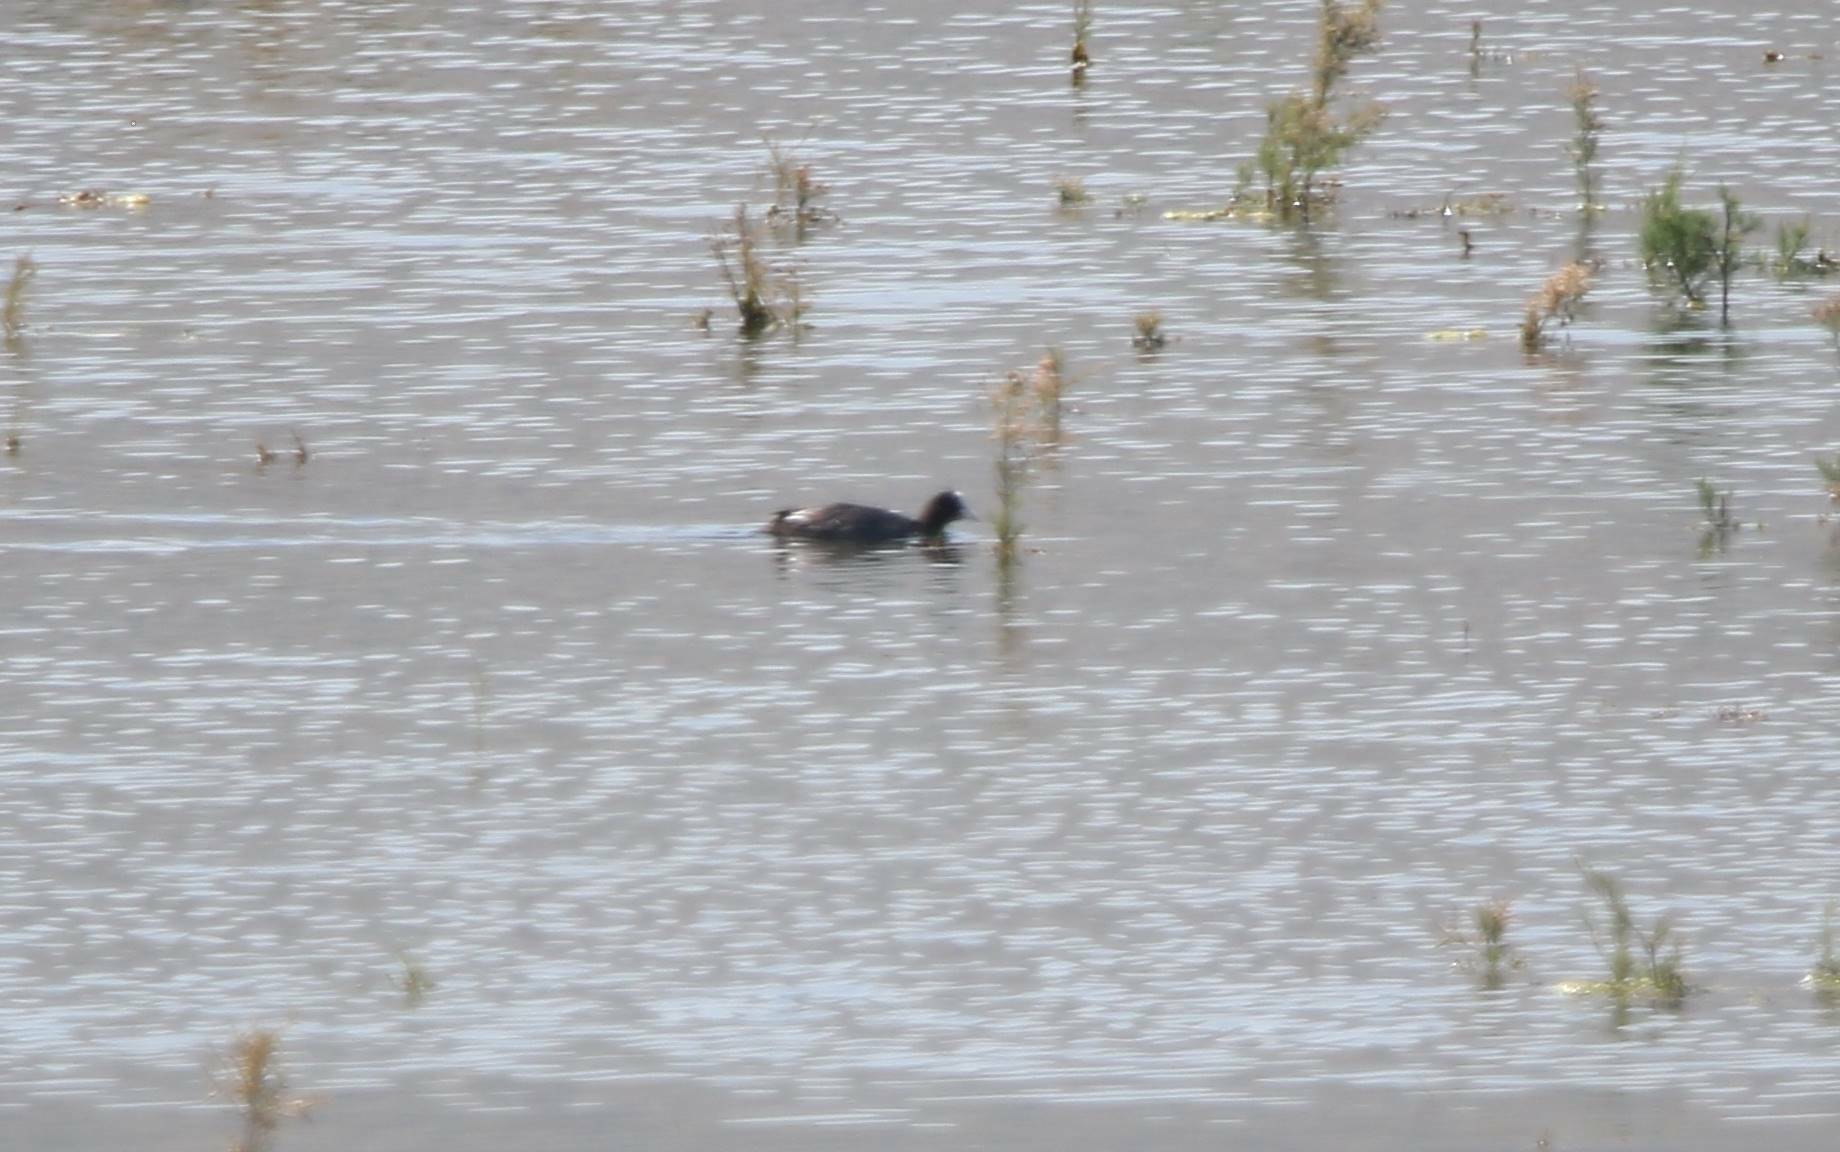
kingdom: Animalia
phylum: Chordata
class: Aves
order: Gruiformes
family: Rallidae
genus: Fulica
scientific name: Fulica atra
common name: Eurasian coot
